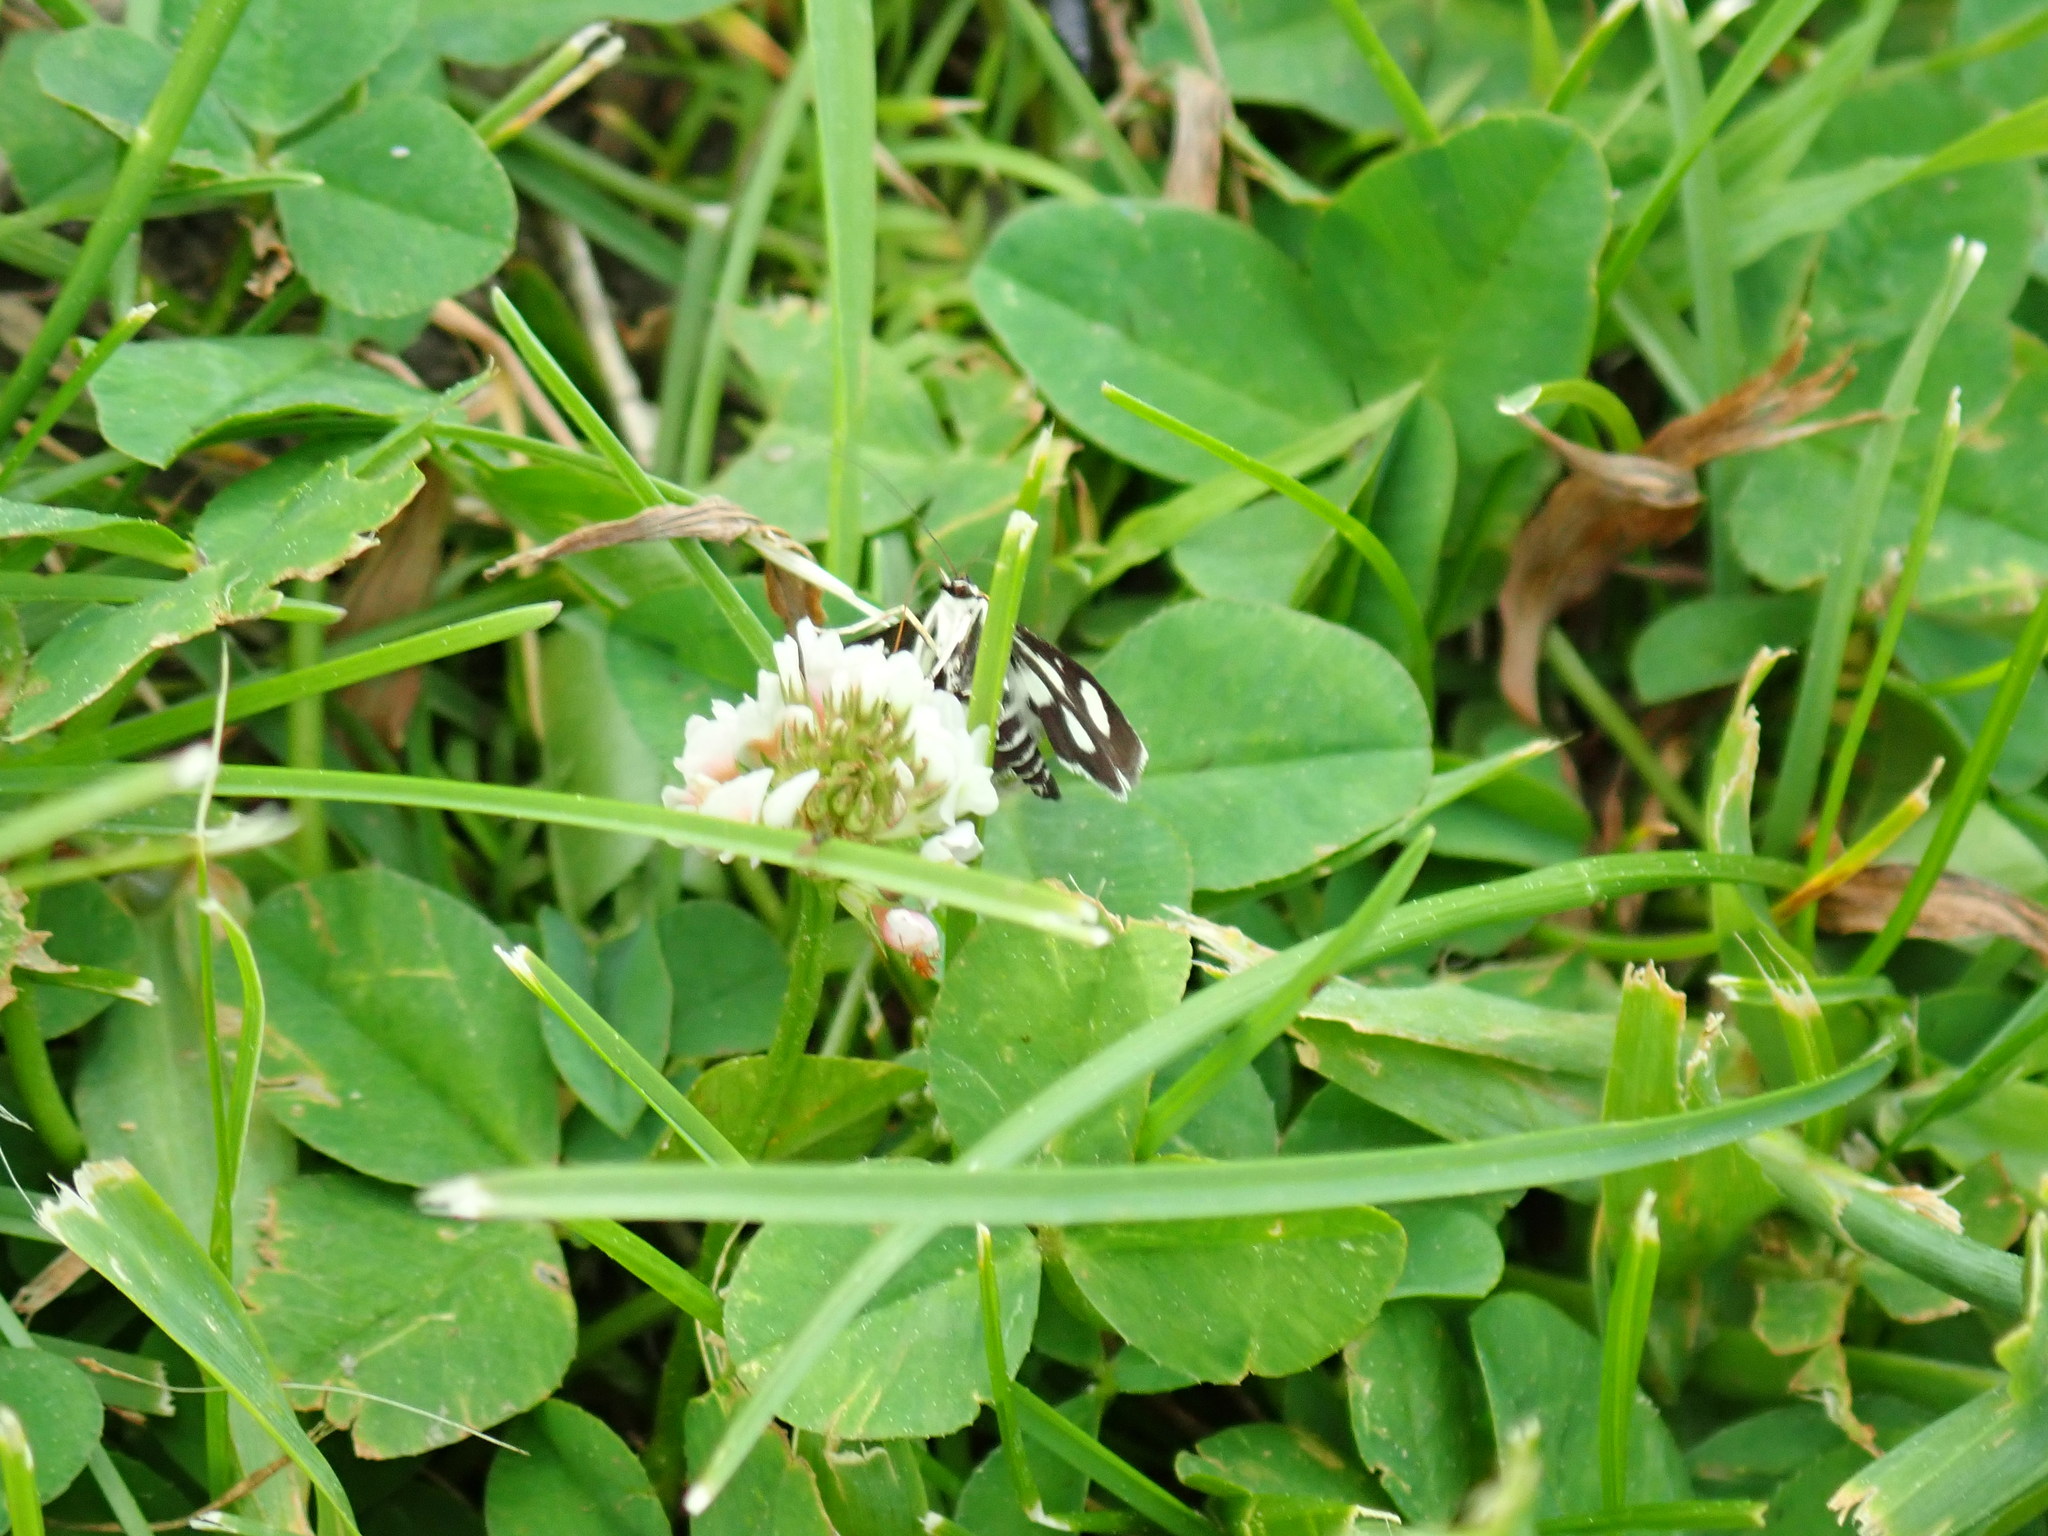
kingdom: Animalia
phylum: Arthropoda
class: Insecta
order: Lepidoptera
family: Crambidae
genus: Anania
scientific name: Anania funebris
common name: White-spotted sable moth
